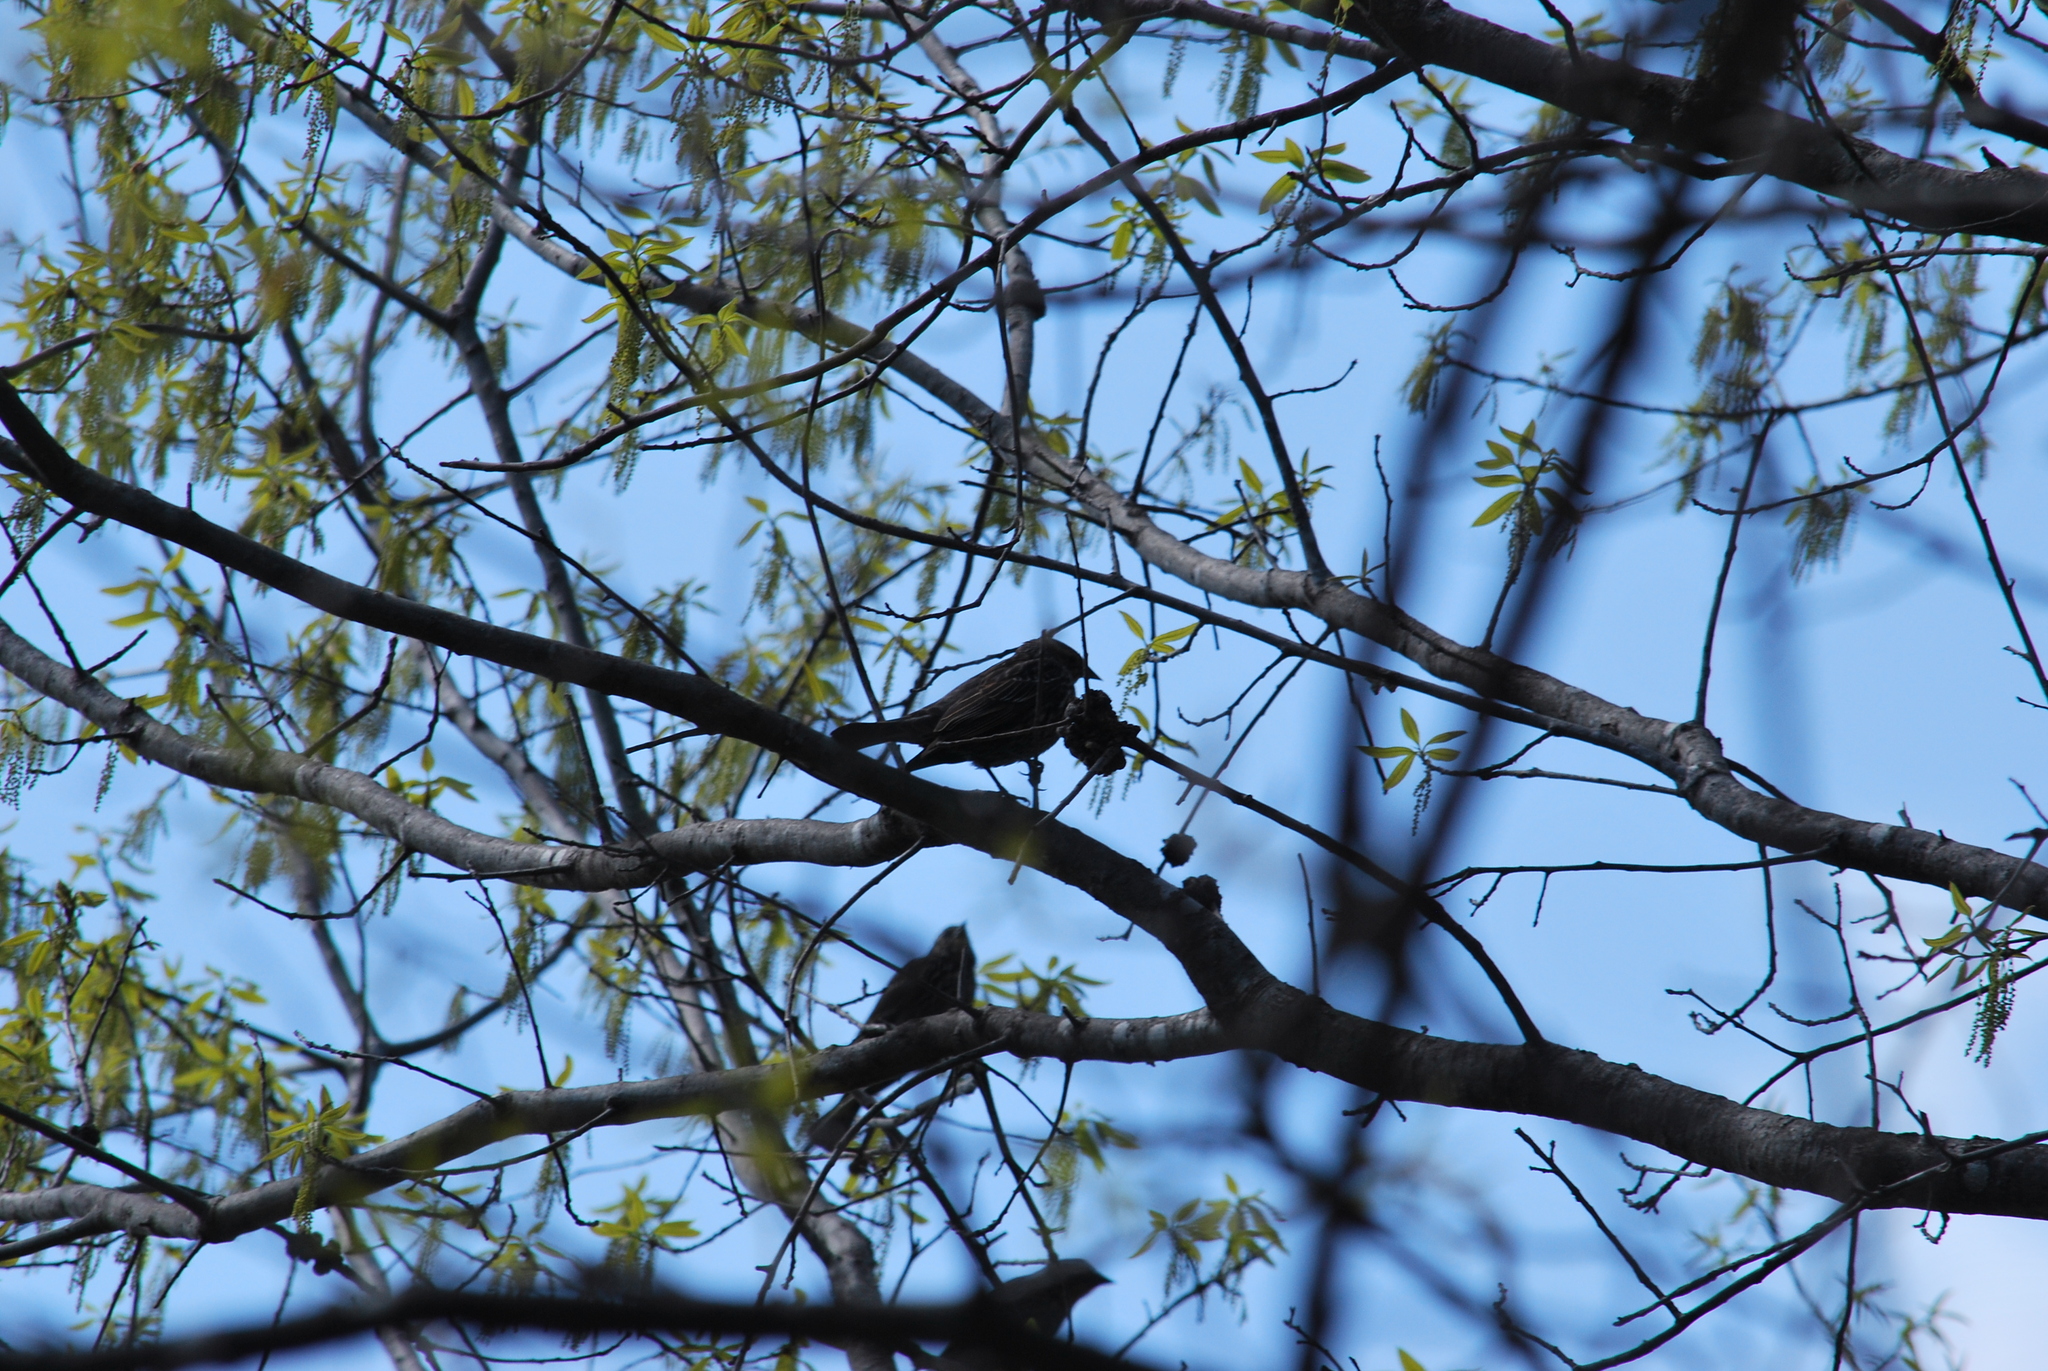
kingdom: Animalia
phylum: Chordata
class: Aves
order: Passeriformes
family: Icteridae
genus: Agelaius
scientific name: Agelaius phoeniceus
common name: Red-winged blackbird
